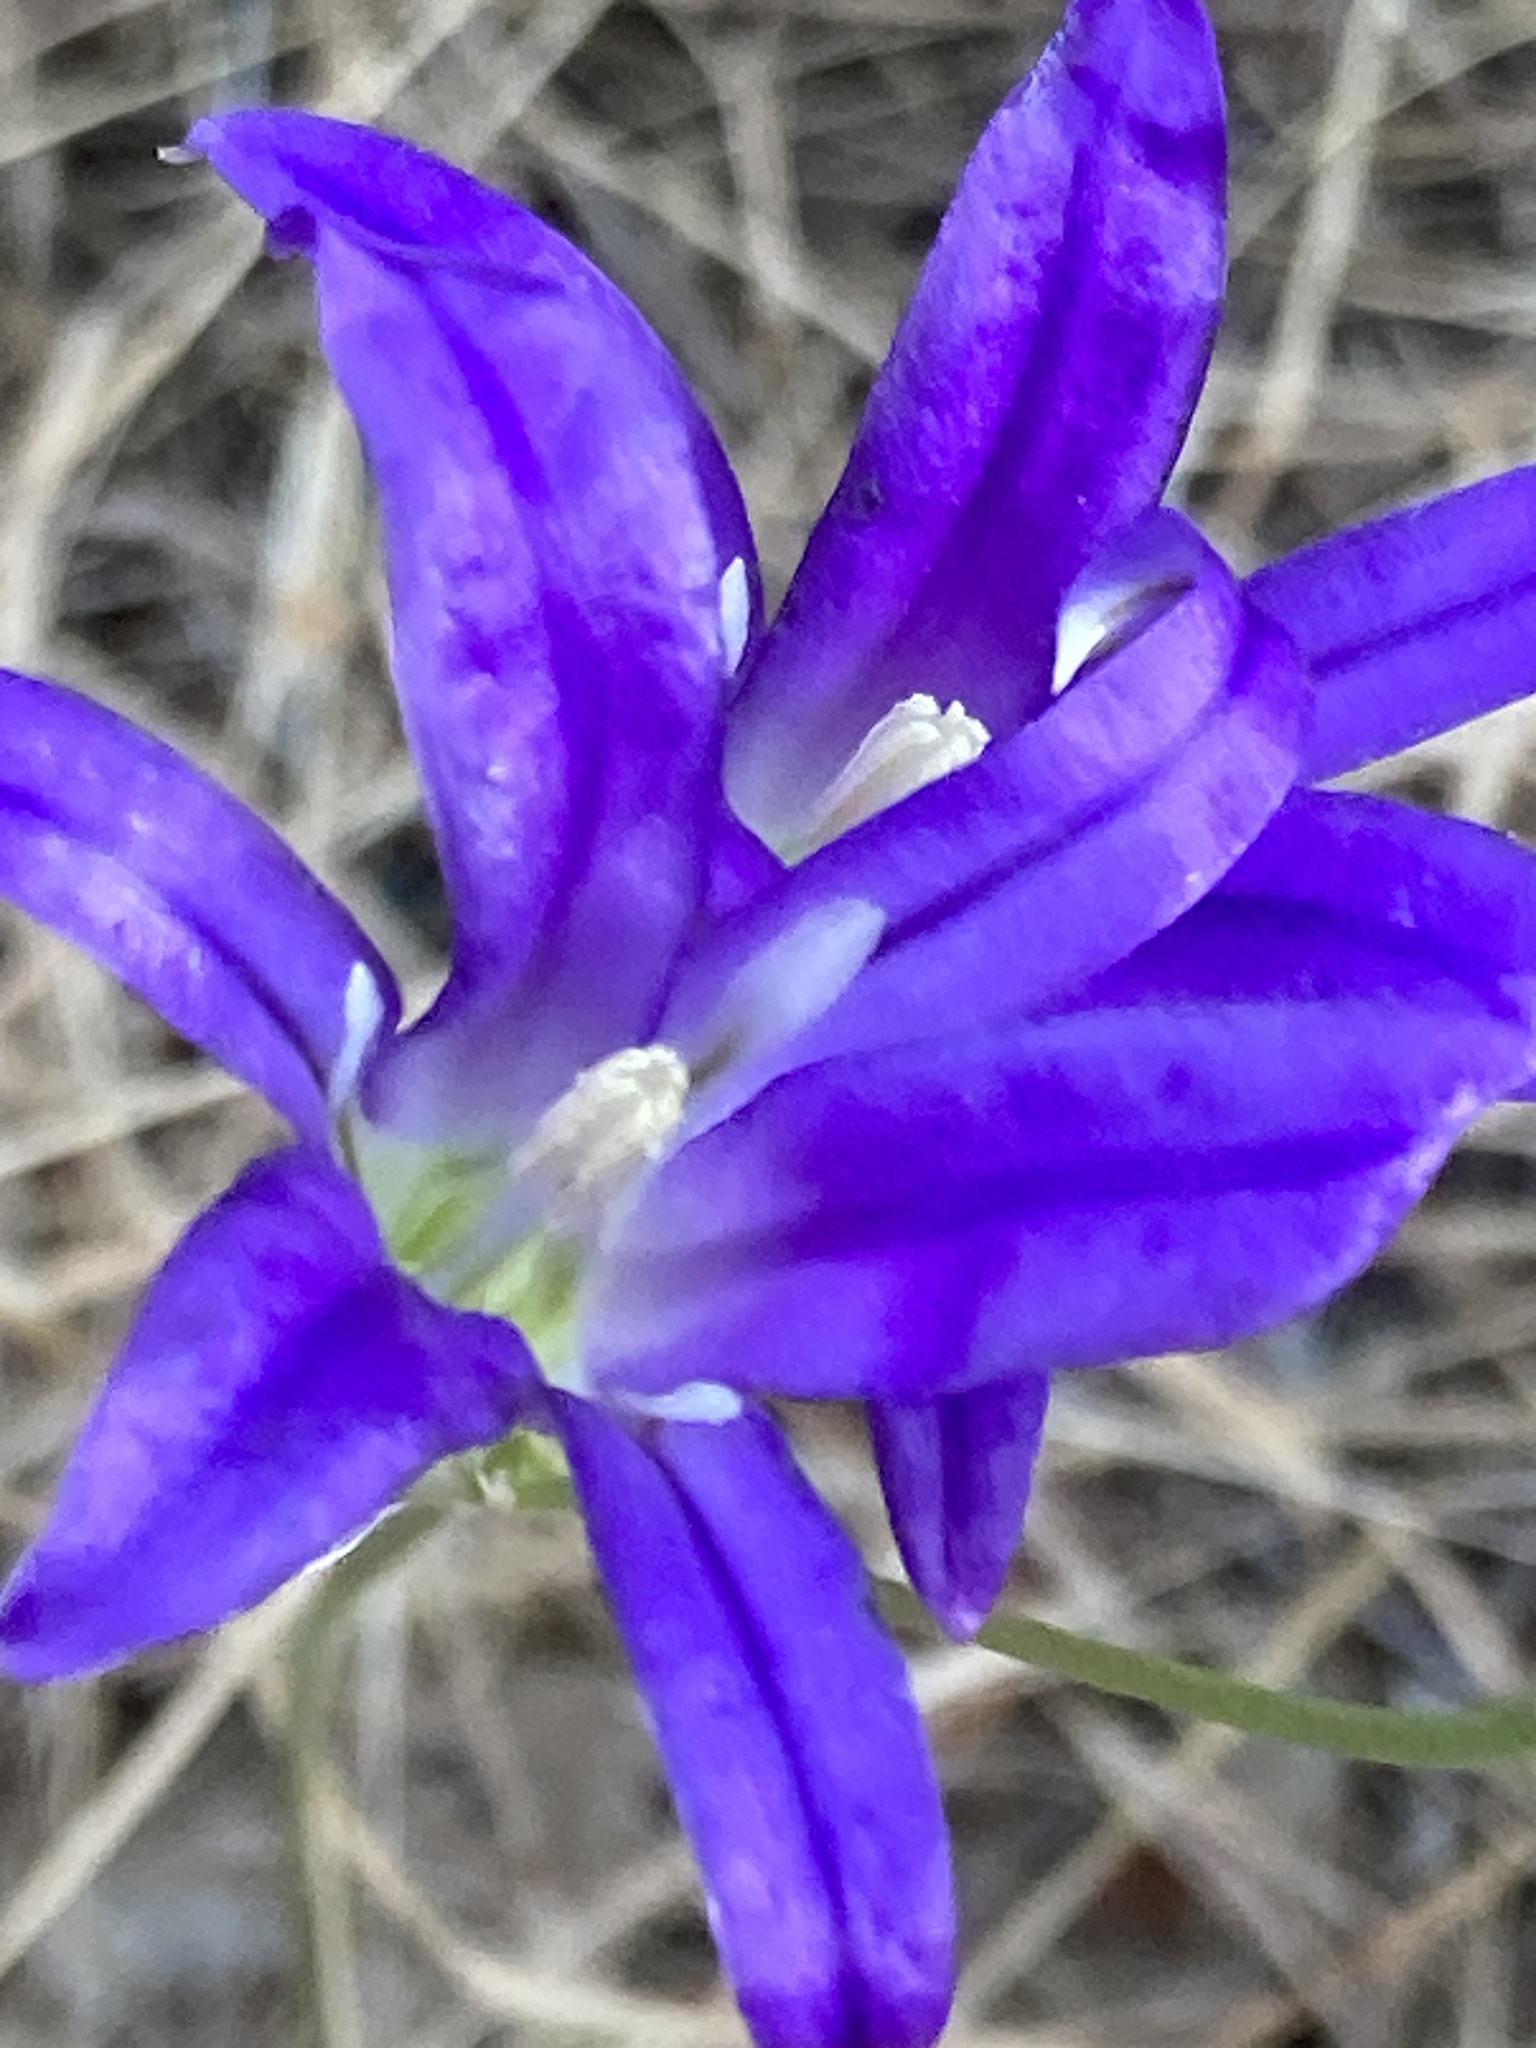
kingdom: Plantae
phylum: Tracheophyta
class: Liliopsida
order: Asparagales
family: Asparagaceae
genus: Brodiaea
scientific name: Brodiaea elegans
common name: Elegant cluster-lily
